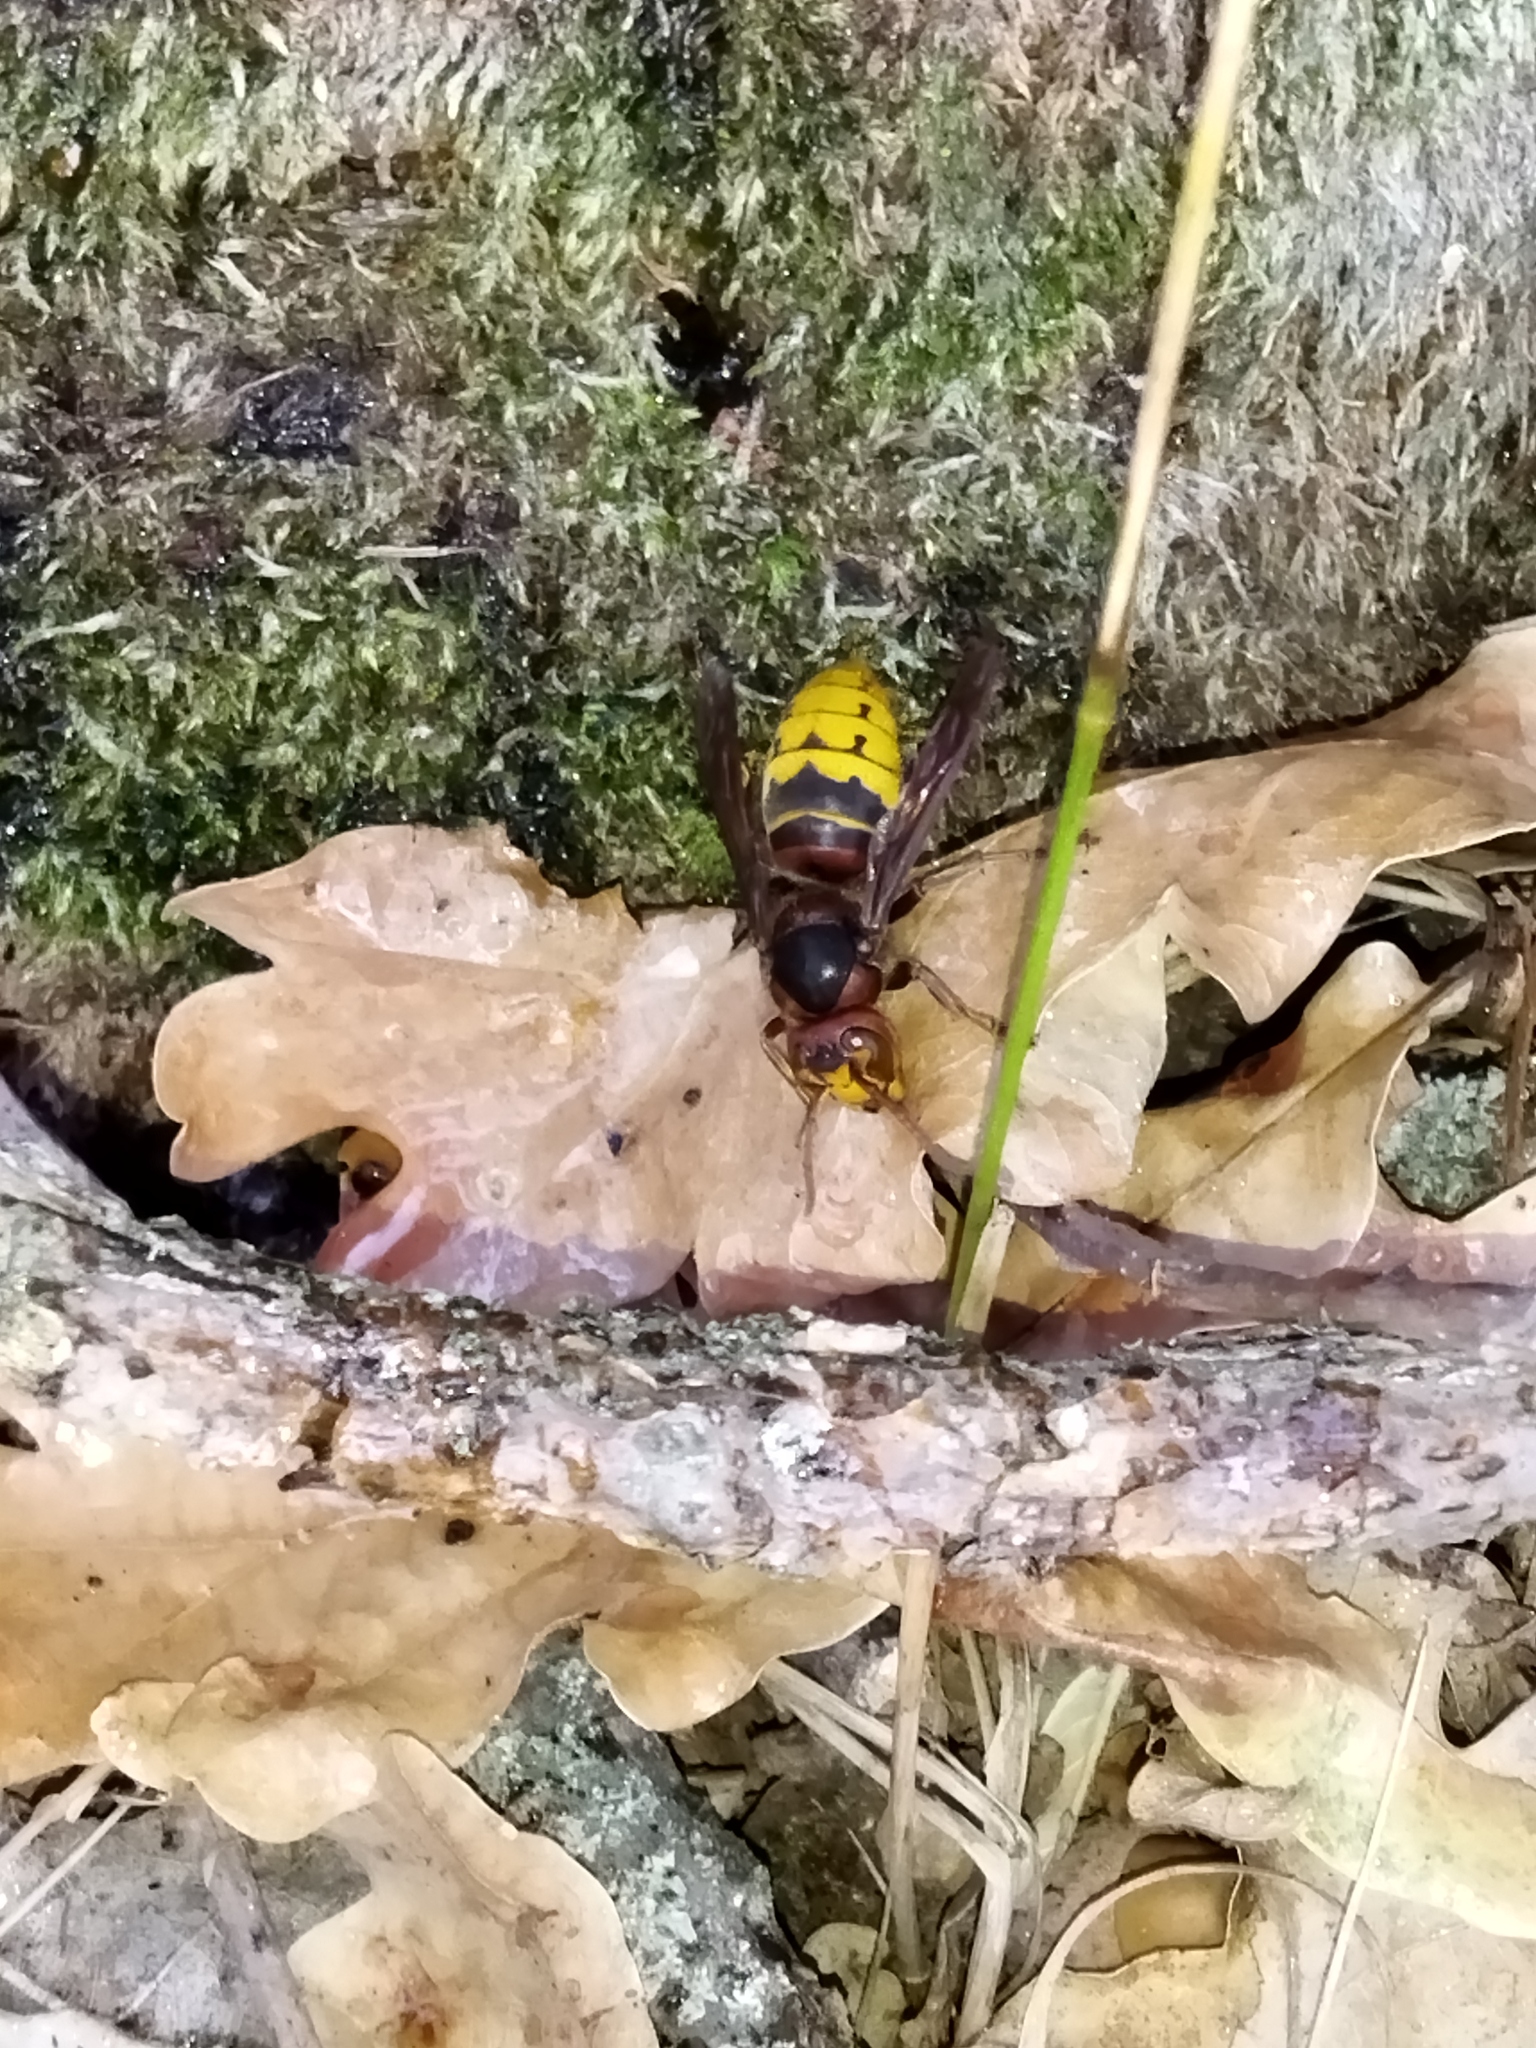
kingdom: Animalia
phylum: Arthropoda
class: Insecta
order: Hymenoptera
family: Vespidae
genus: Vespa
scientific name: Vespa crabro
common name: Hornet
